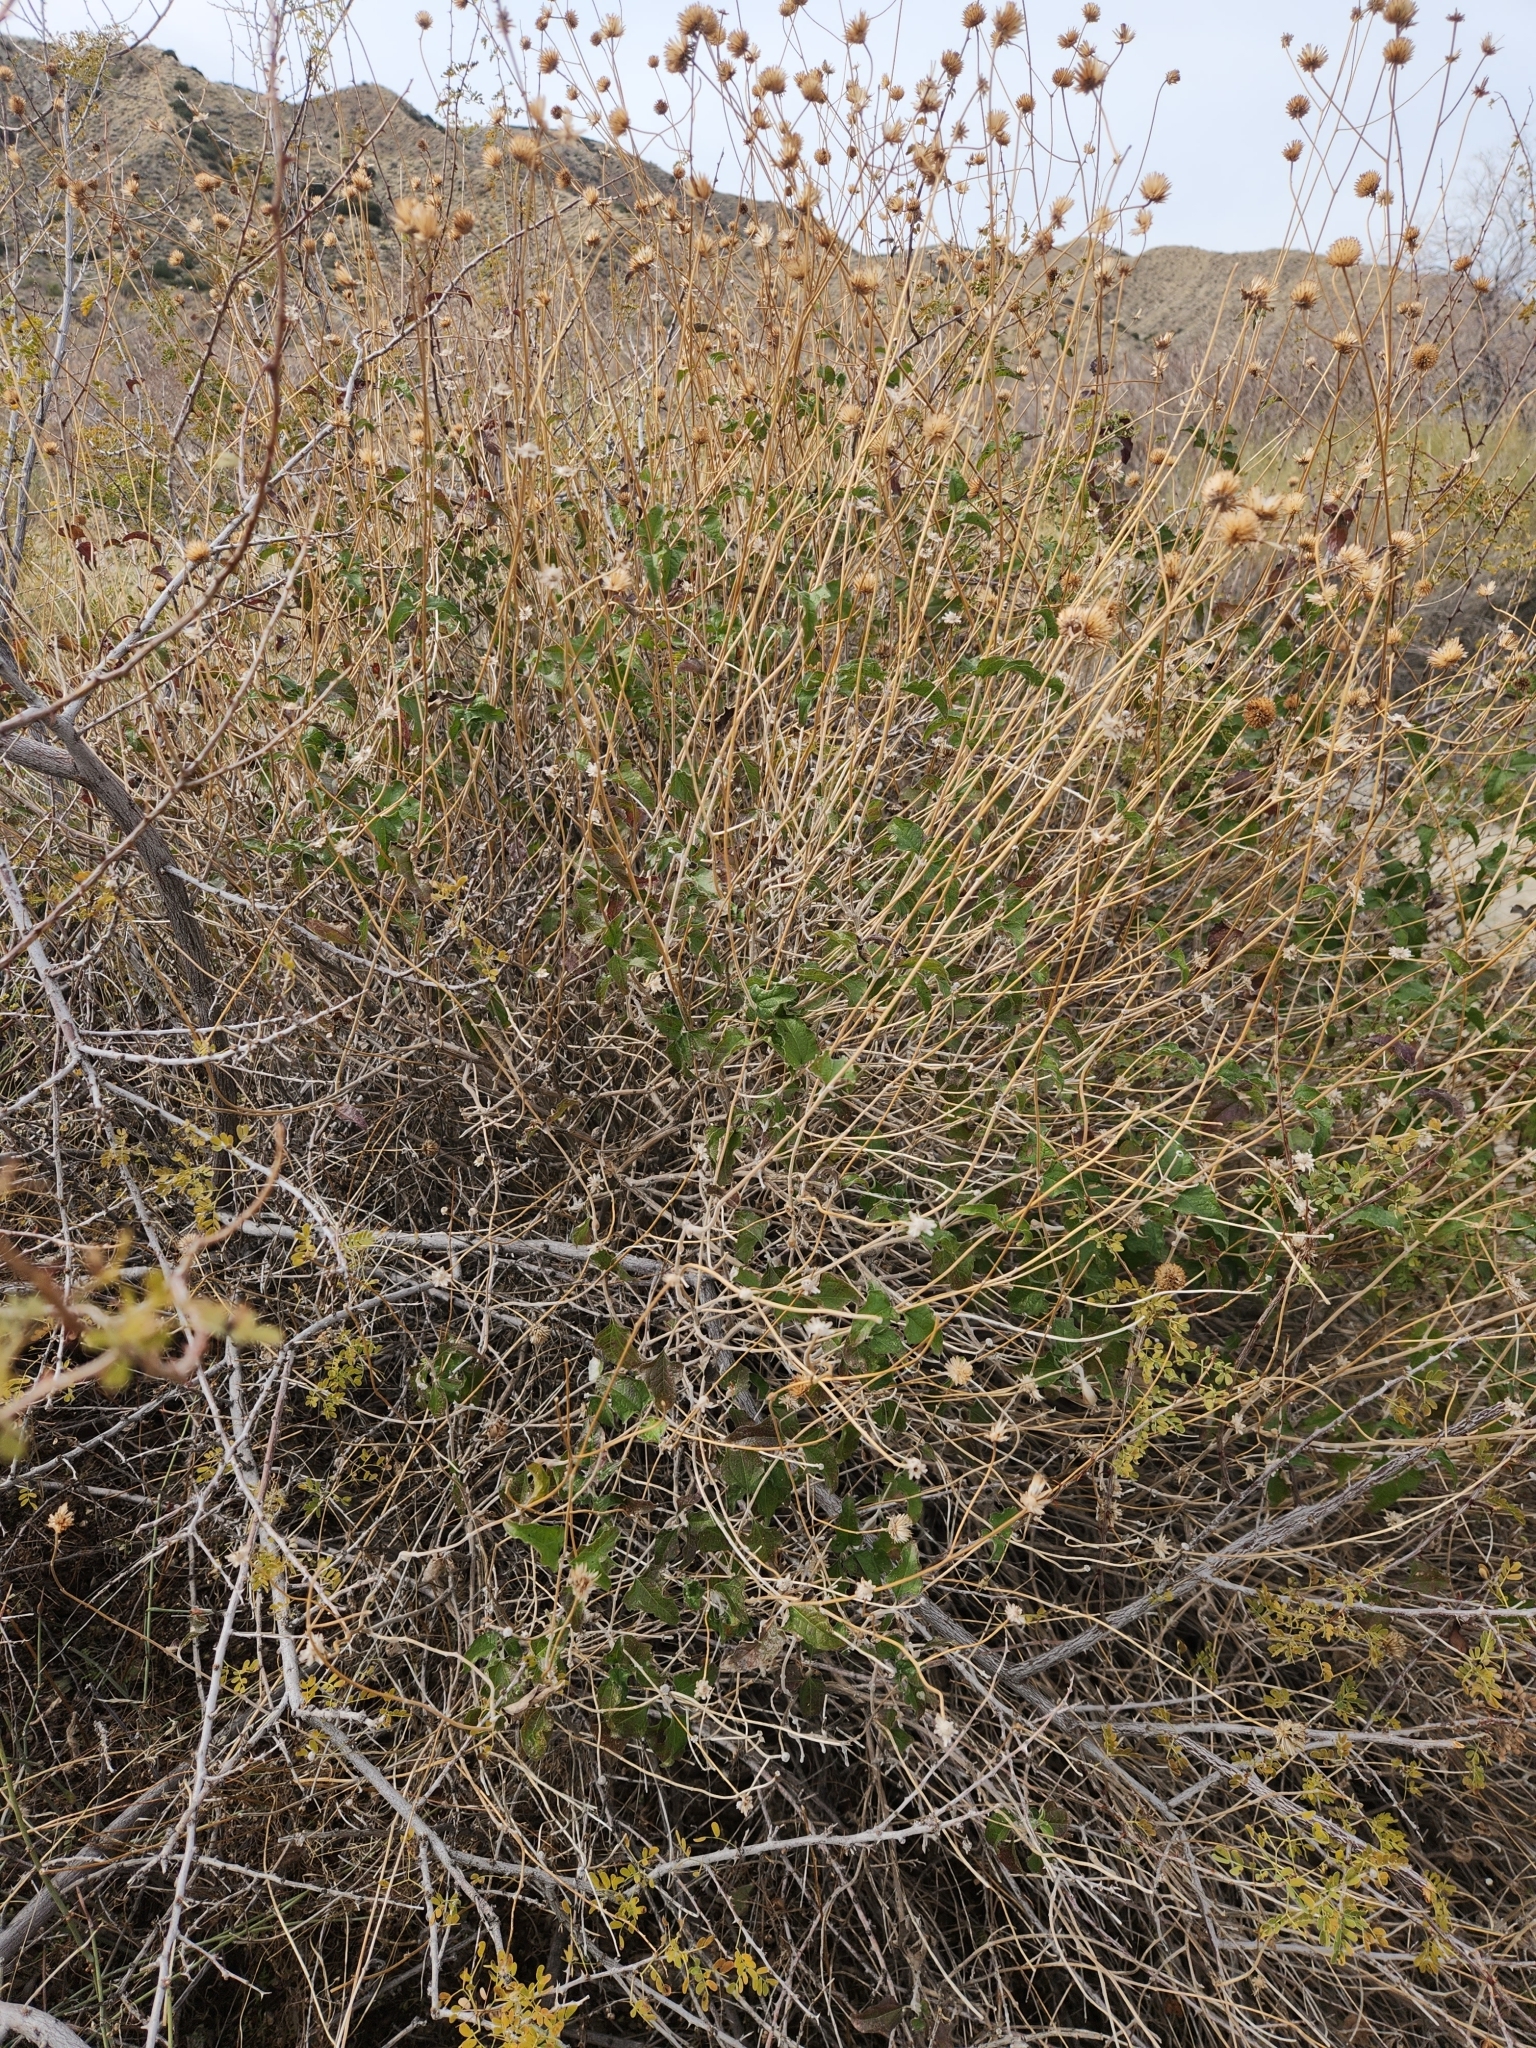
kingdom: Plantae
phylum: Tracheophyta
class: Magnoliopsida
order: Asterales
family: Asteraceae
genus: Bahiopsis
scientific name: Bahiopsis parishii
